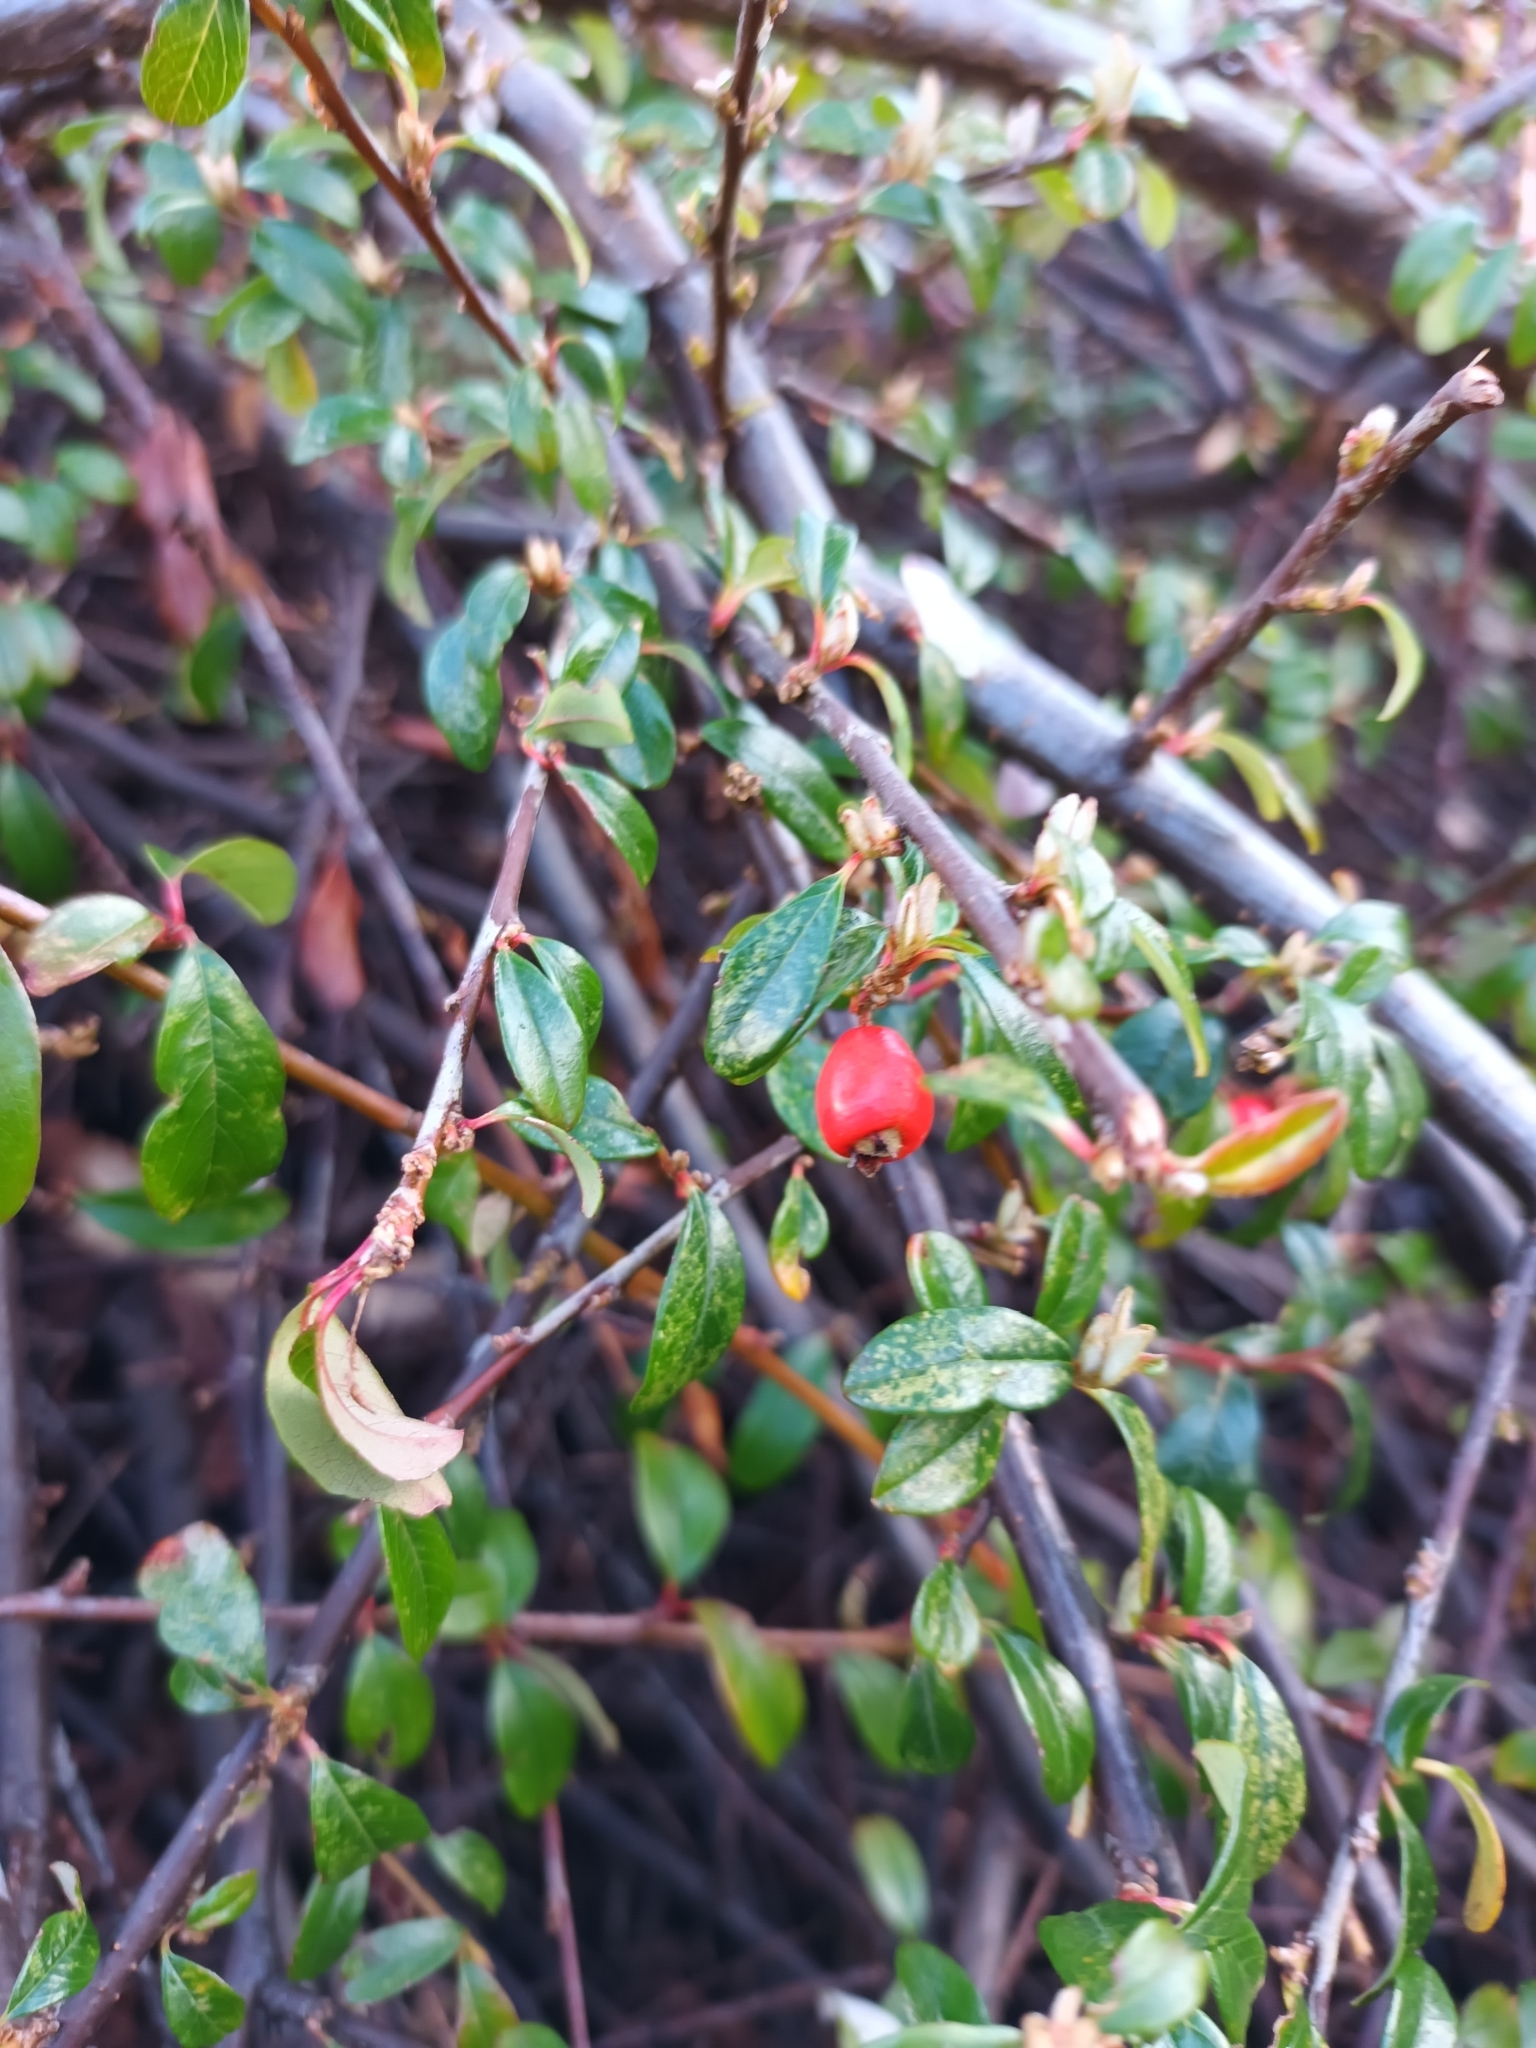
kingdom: Plantae
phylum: Tracheophyta
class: Magnoliopsida
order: Rosales
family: Rosaceae
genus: Cotoneaster
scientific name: Cotoneaster suecicus
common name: Swedish cotoneaster
